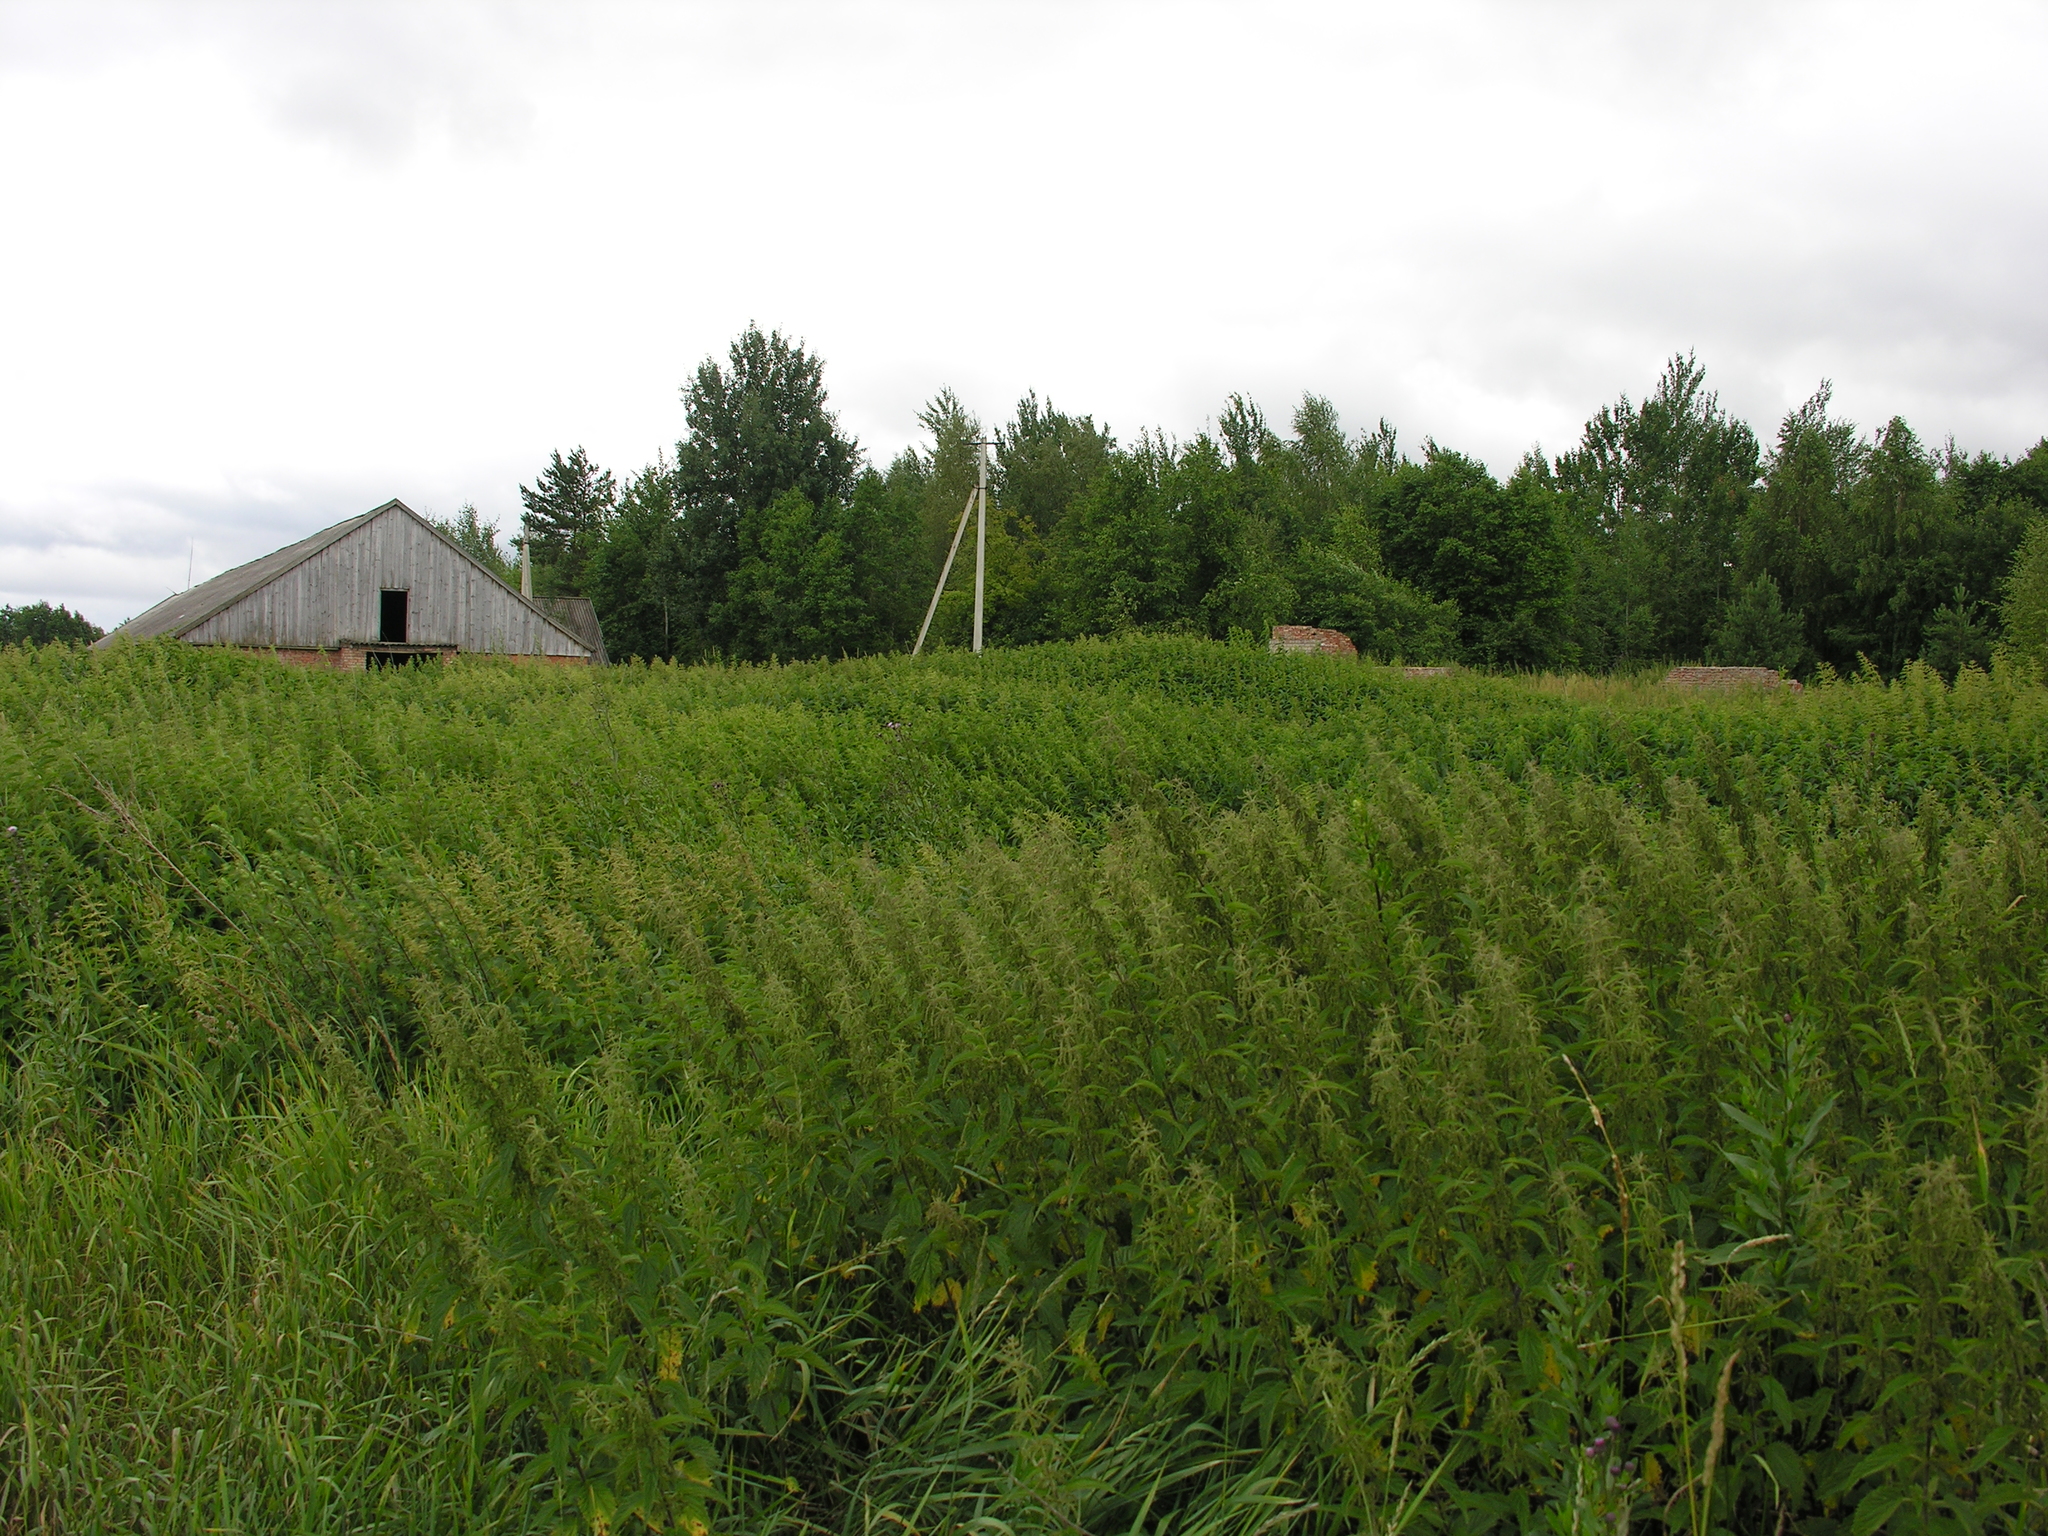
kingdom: Plantae
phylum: Tracheophyta
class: Magnoliopsida
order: Rosales
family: Urticaceae
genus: Urtica
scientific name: Urtica dioica
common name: Common nettle
